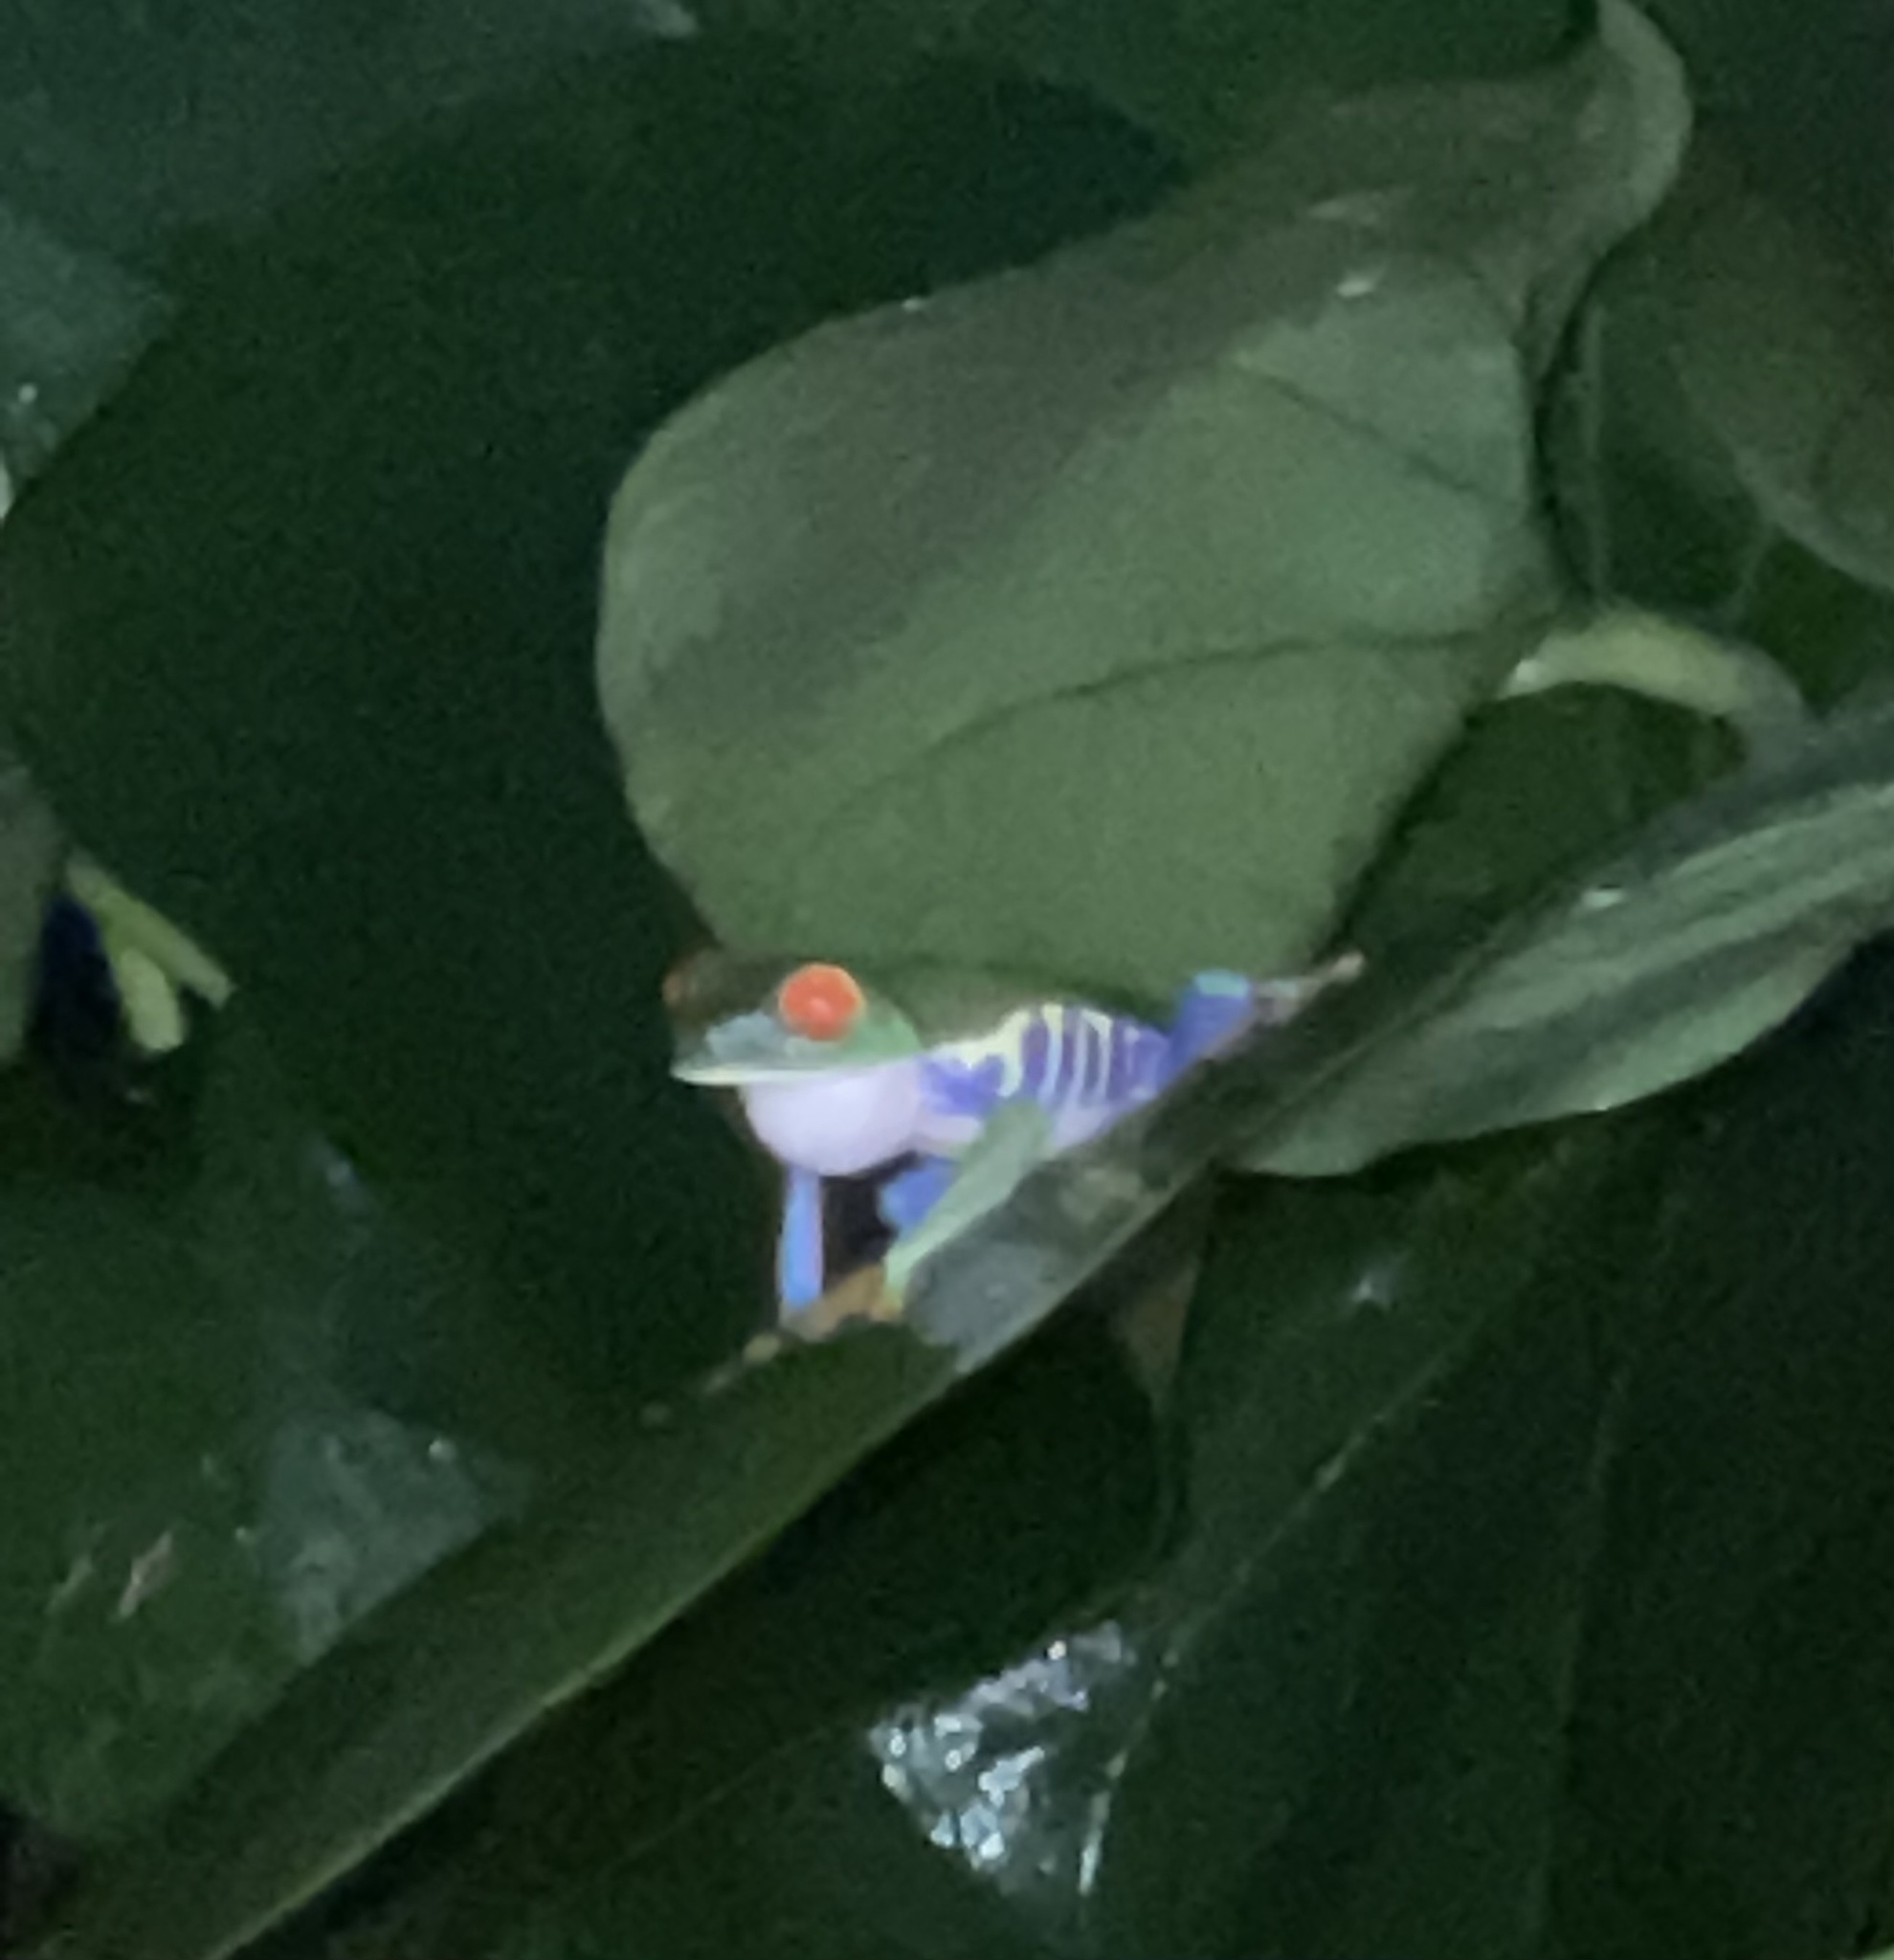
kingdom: Animalia
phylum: Chordata
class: Amphibia
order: Anura
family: Phyllomedusidae
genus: Agalychnis
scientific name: Agalychnis callidryas
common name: Red-eyed treefrog
